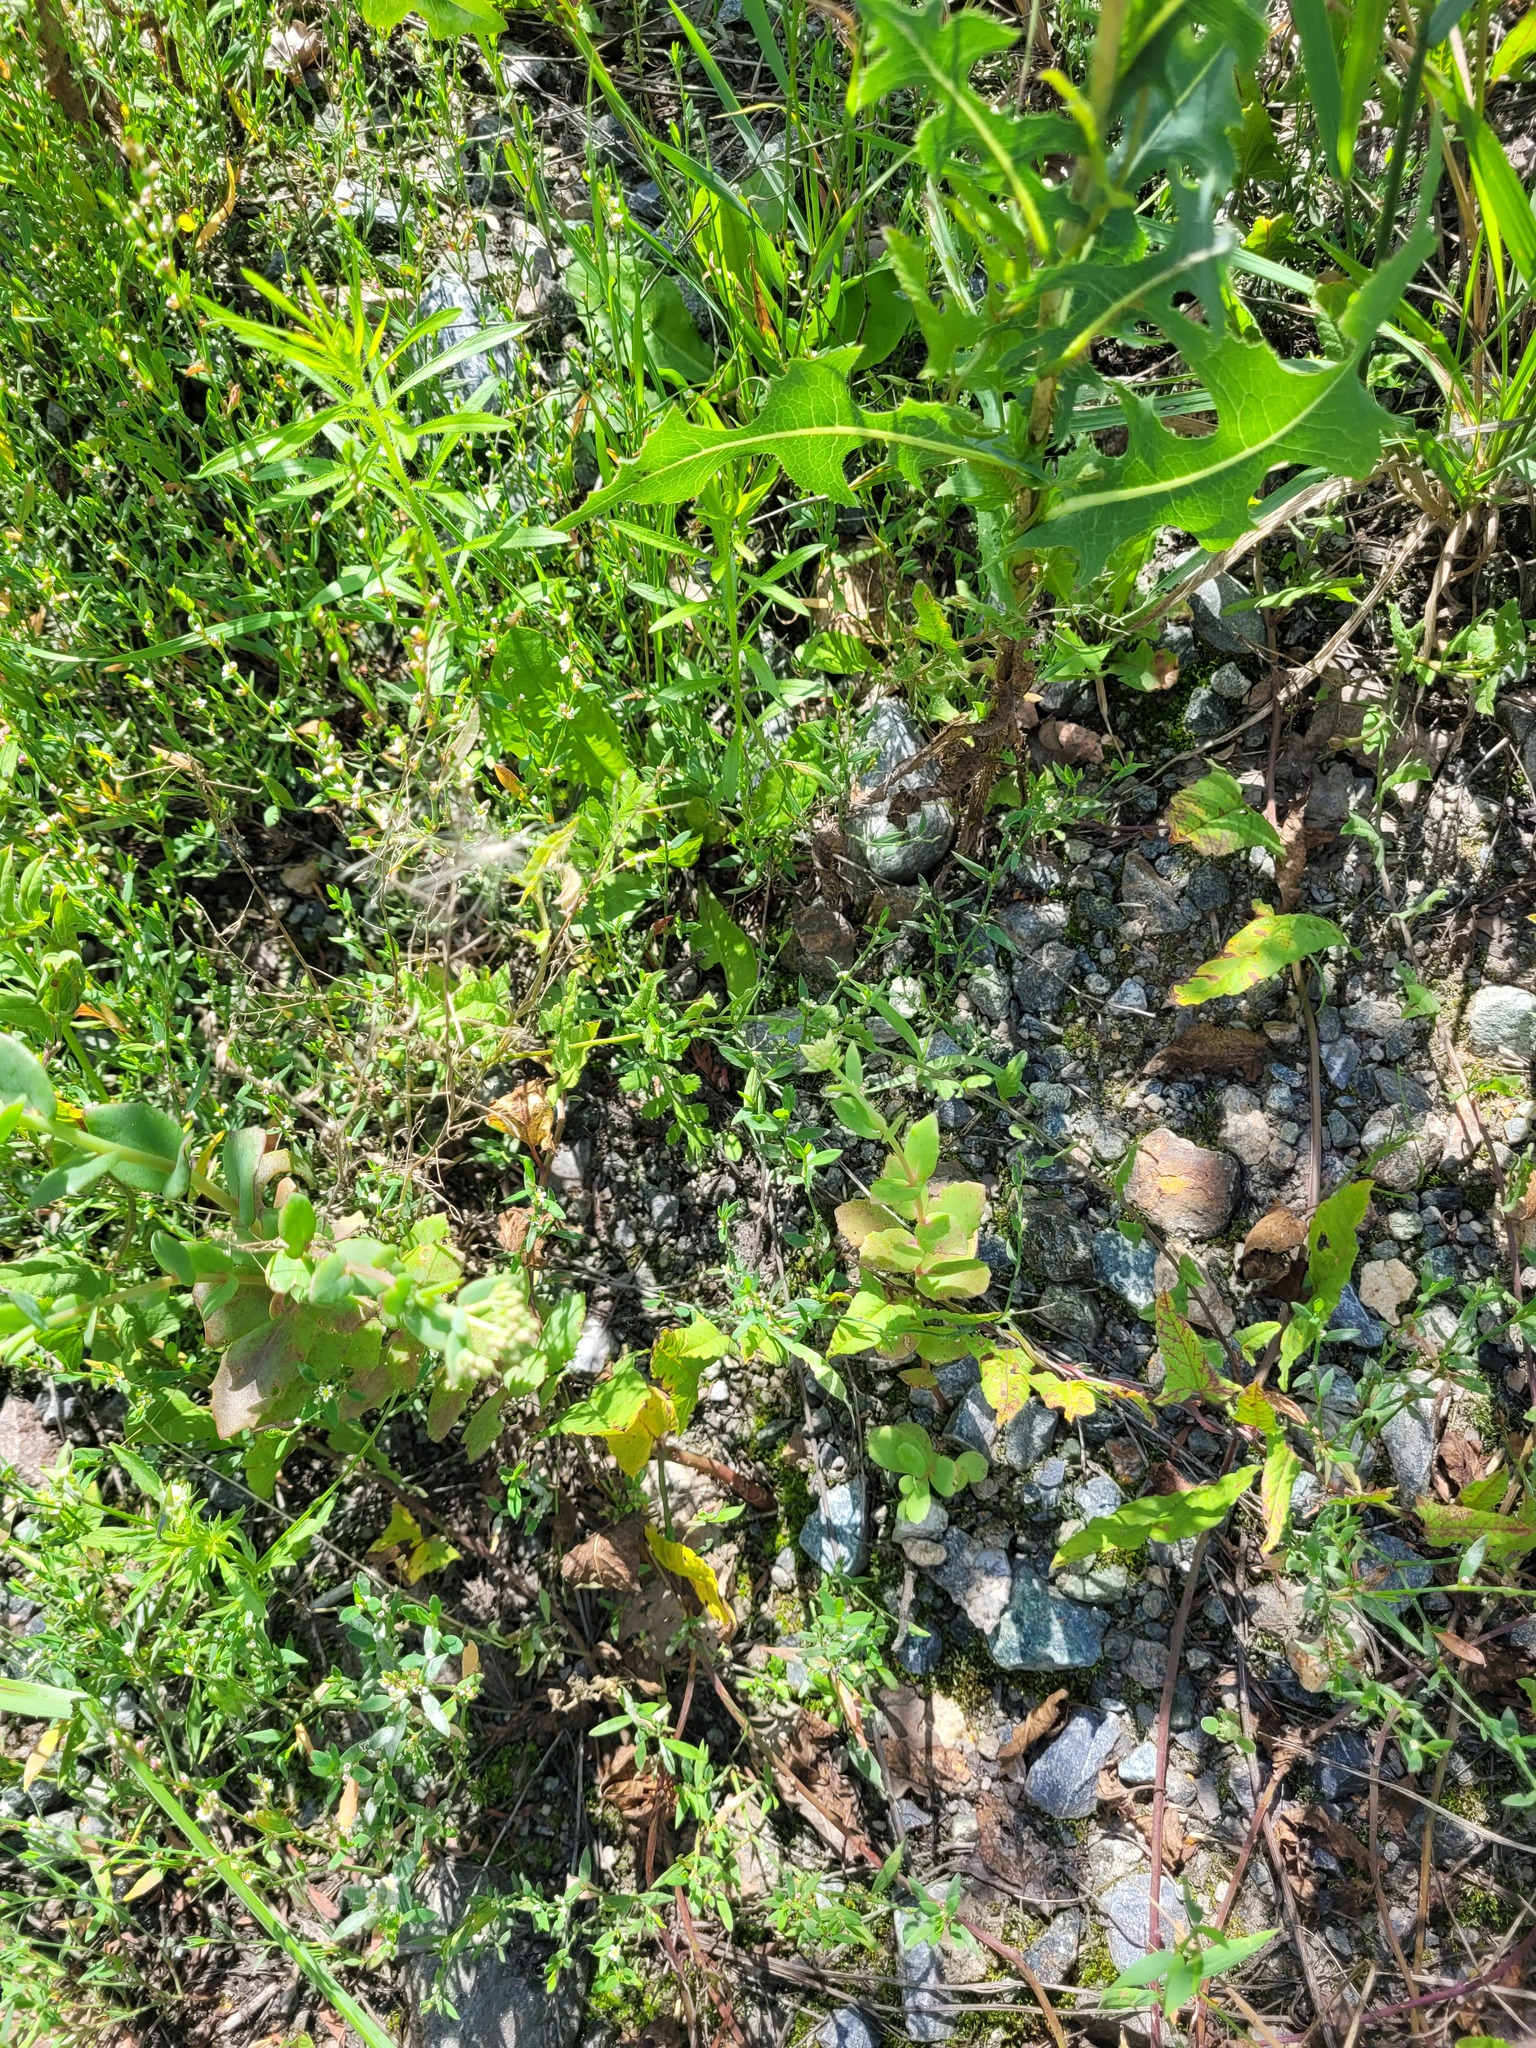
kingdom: Plantae
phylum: Tracheophyta
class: Magnoliopsida
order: Saxifragales
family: Crassulaceae
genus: Hylotelephium
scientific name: Hylotelephium maximum
